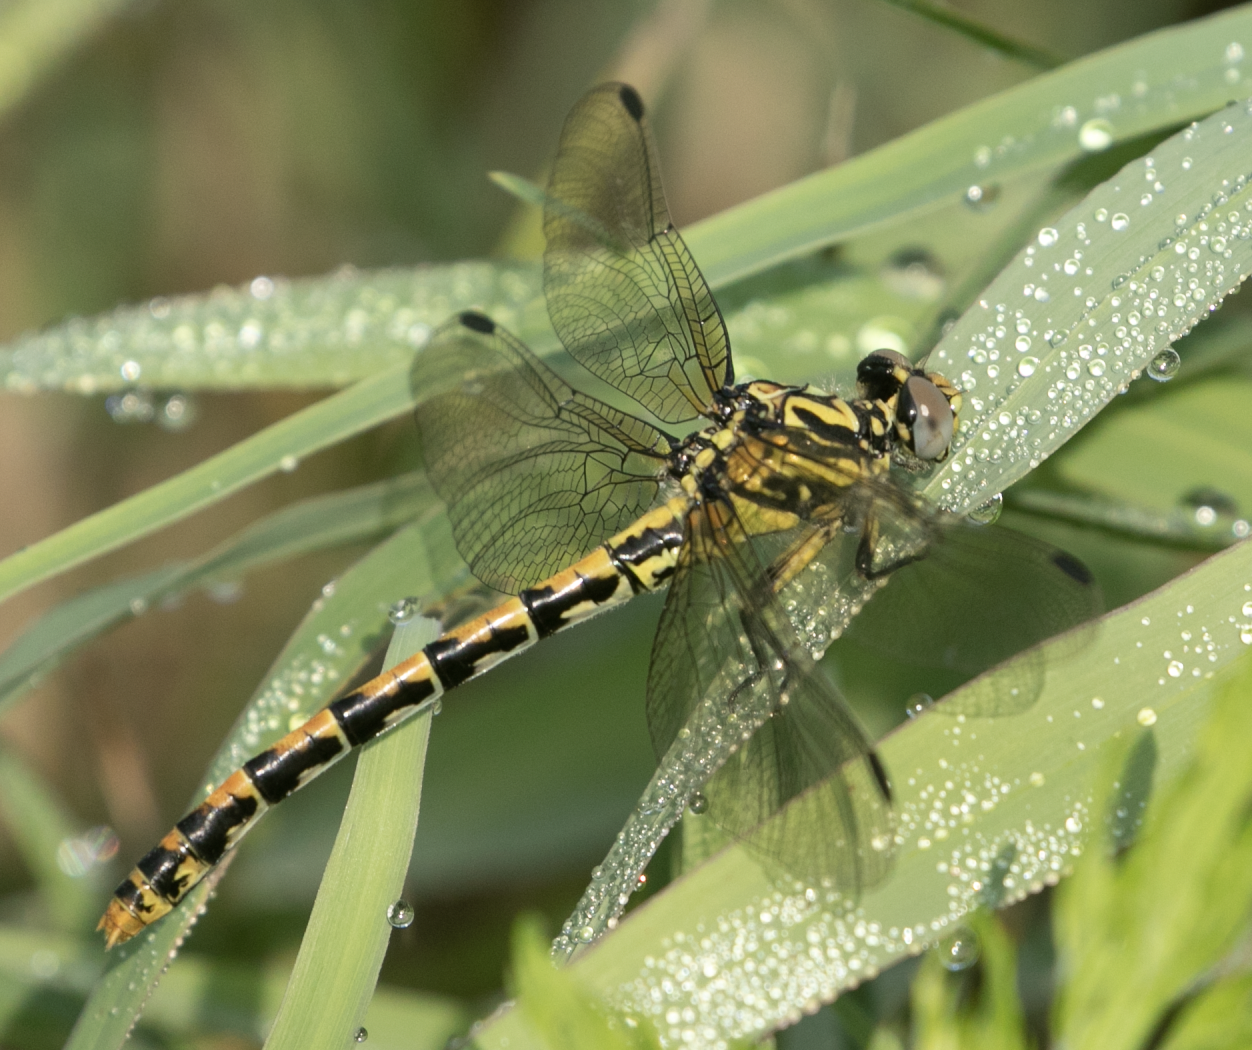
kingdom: Animalia
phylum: Arthropoda
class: Insecta
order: Odonata
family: Gomphidae
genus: Onychogomphus
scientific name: Onychogomphus uncatus
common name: Large pincertail
